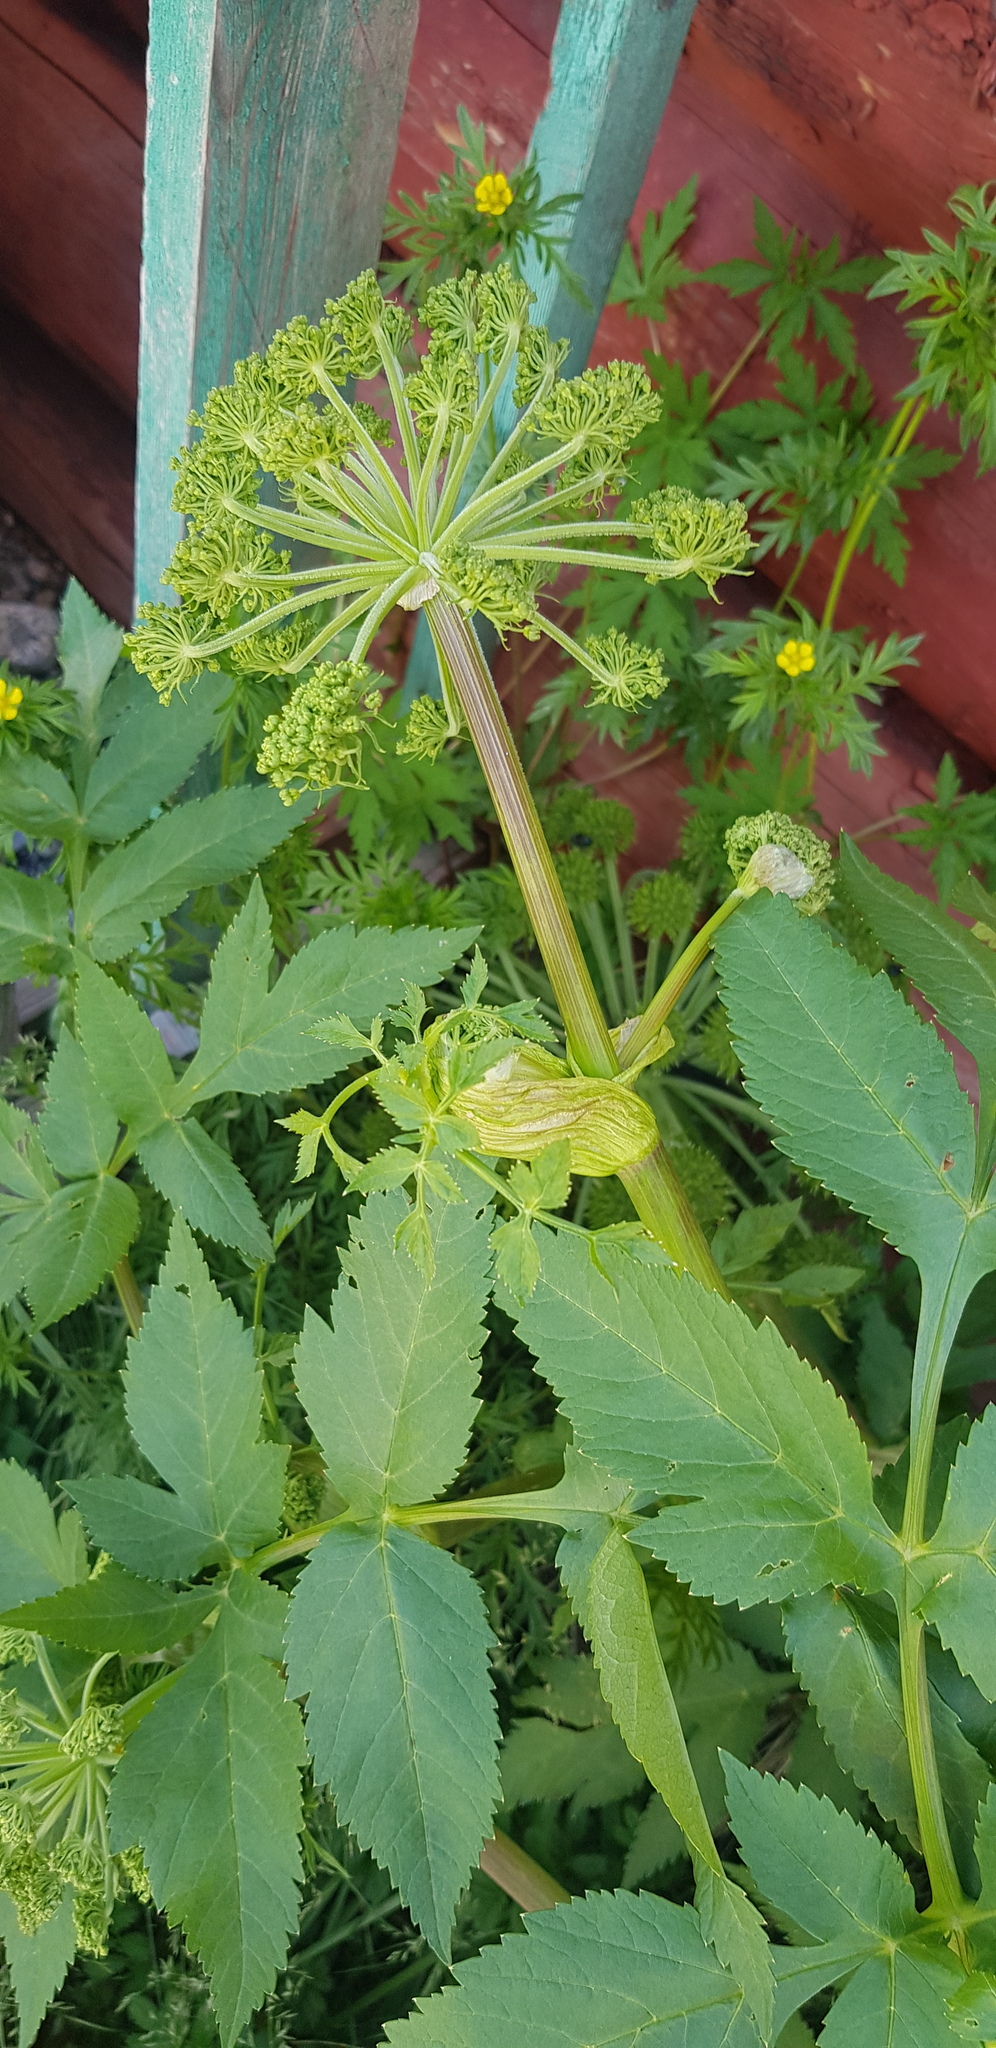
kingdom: Plantae
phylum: Tracheophyta
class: Magnoliopsida
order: Apiales
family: Apiaceae
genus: Angelica
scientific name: Angelica sylvestris
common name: Wild angelica
